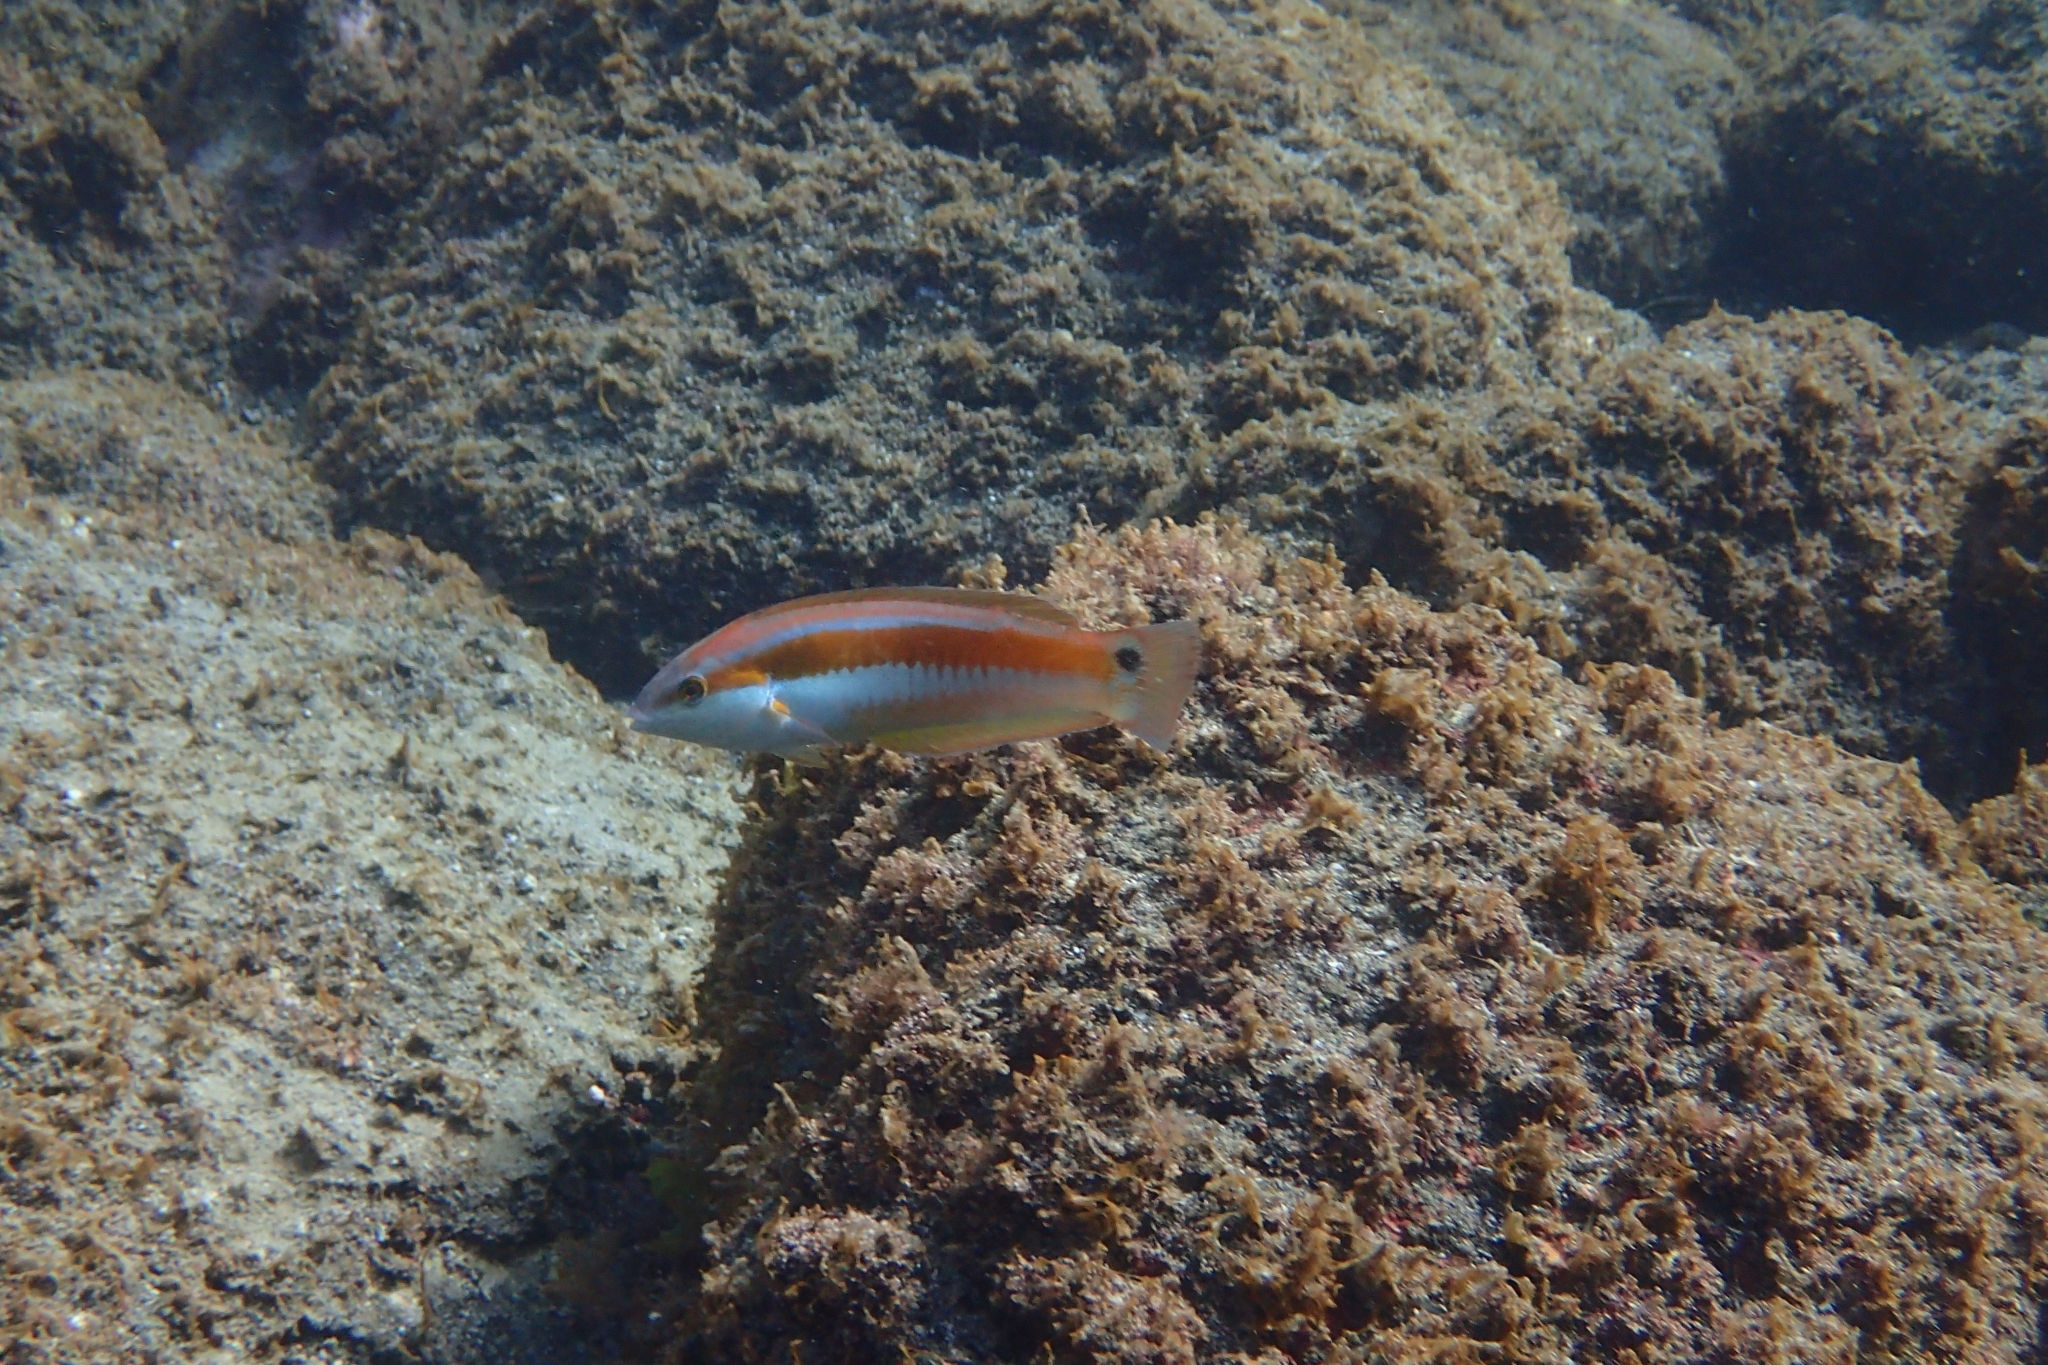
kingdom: Animalia
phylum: Chordata
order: Perciformes
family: Labridae
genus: Coris
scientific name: Coris sandeyeri
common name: Sandager's wrasse
